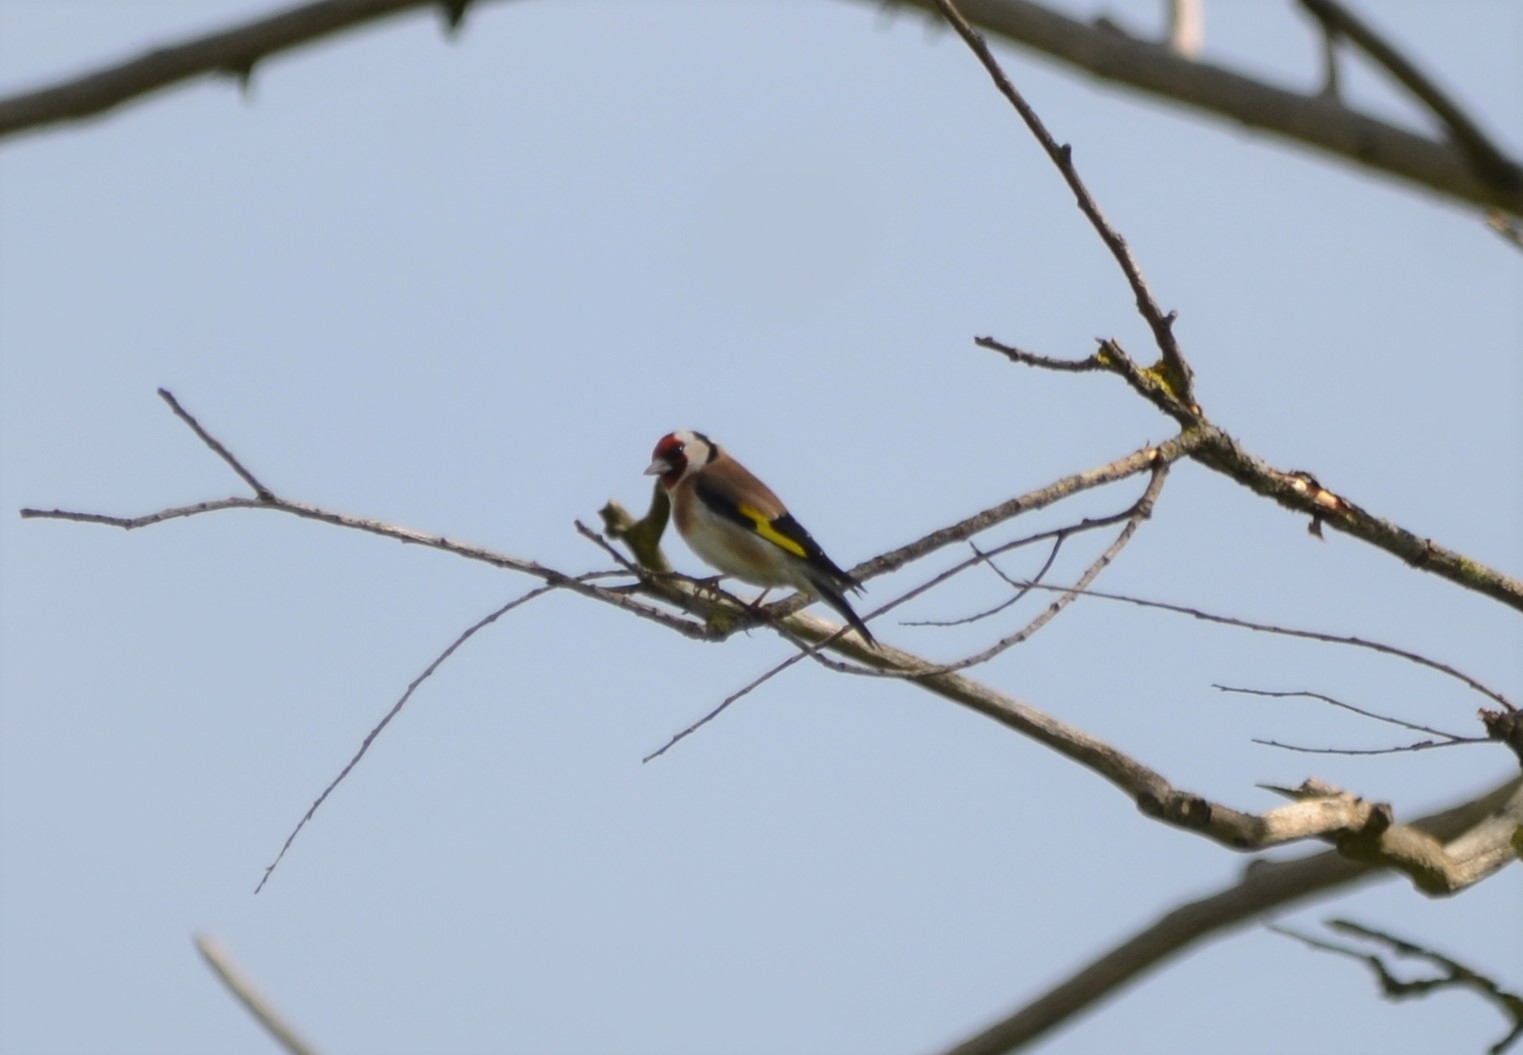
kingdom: Animalia
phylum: Chordata
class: Aves
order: Passeriformes
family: Fringillidae
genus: Carduelis
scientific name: Carduelis carduelis
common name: European goldfinch
